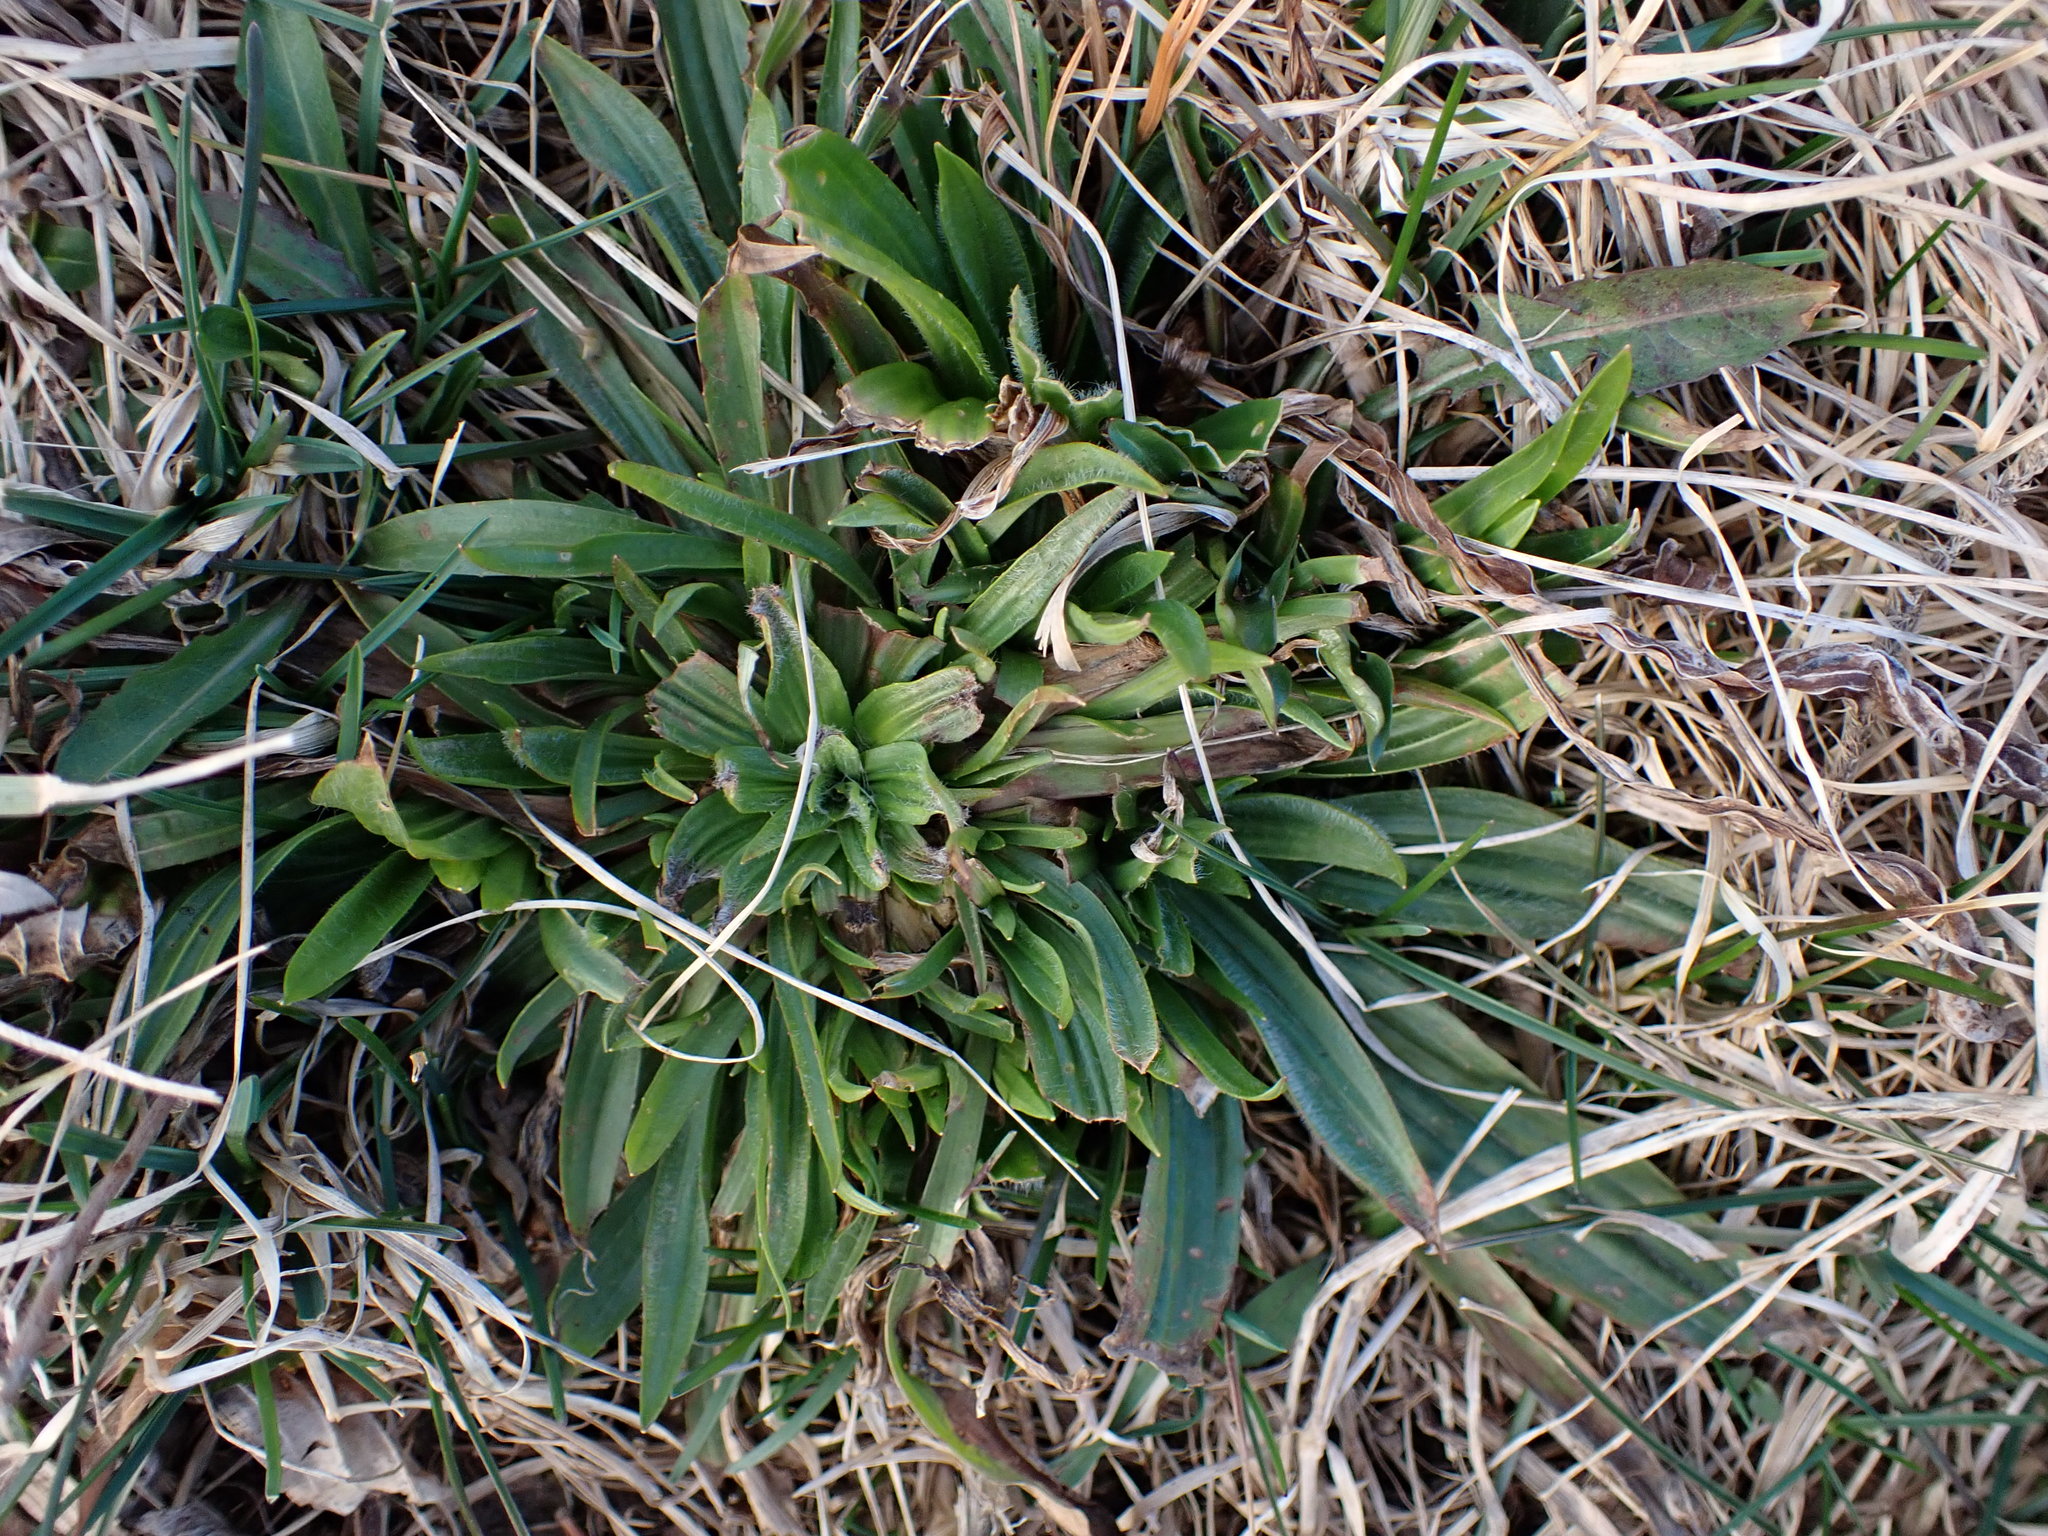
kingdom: Plantae
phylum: Tracheophyta
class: Magnoliopsida
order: Lamiales
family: Plantaginaceae
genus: Plantago
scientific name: Plantago lanceolata
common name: Ribwort plantain
